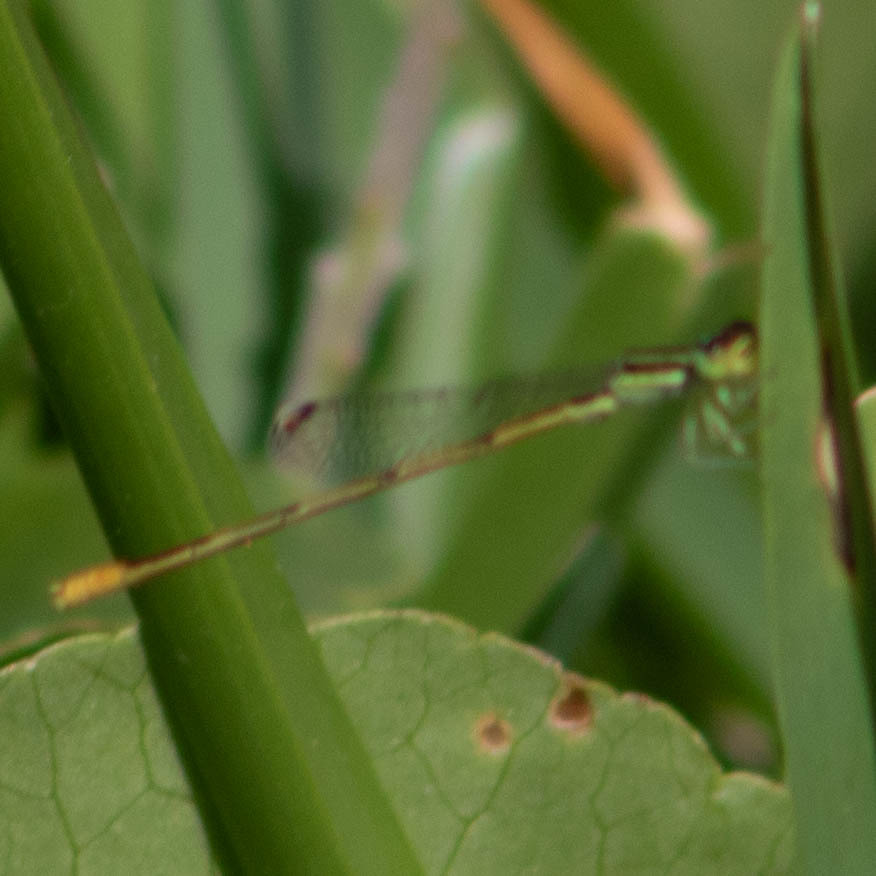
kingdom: Animalia
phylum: Arthropoda
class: Insecta
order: Odonata
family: Coenagrionidae
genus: Ischnura
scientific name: Ischnura hastata
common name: Citrine forktail
